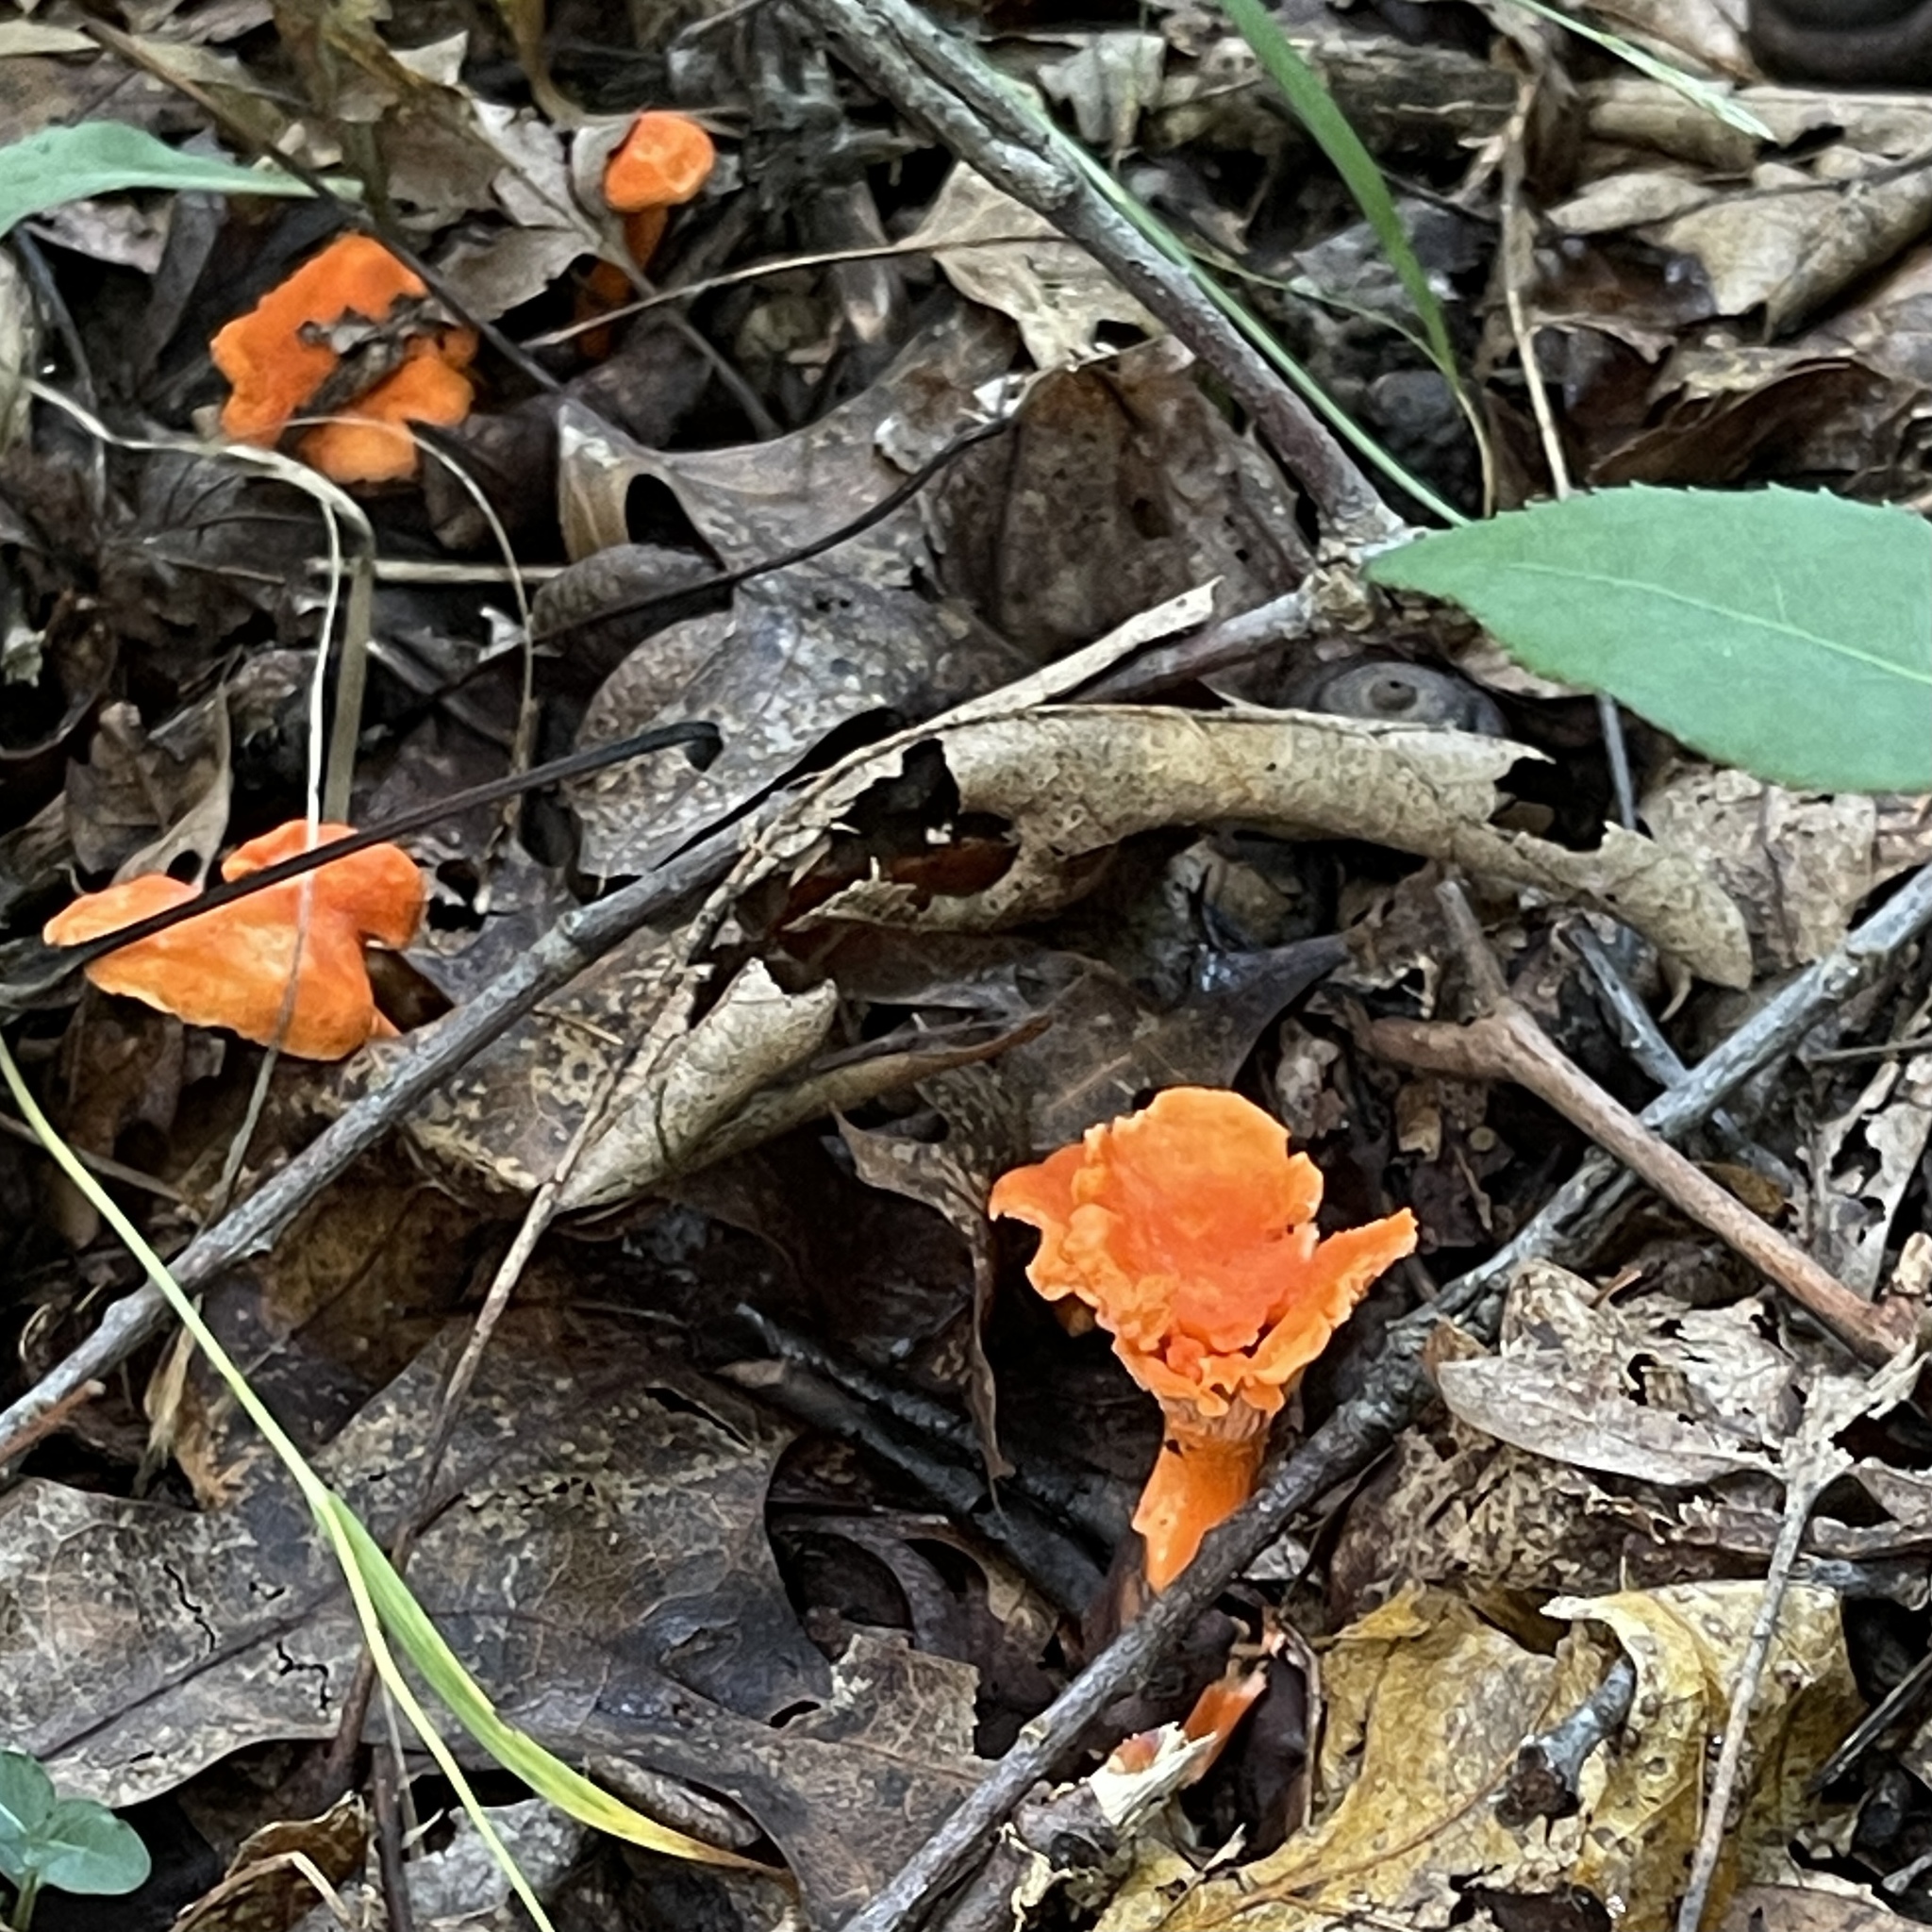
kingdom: Fungi
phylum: Basidiomycota
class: Agaricomycetes
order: Cantharellales
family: Hydnaceae
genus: Cantharellus
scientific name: Cantharellus cinnabarinus
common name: Cinnabar chanterelle
